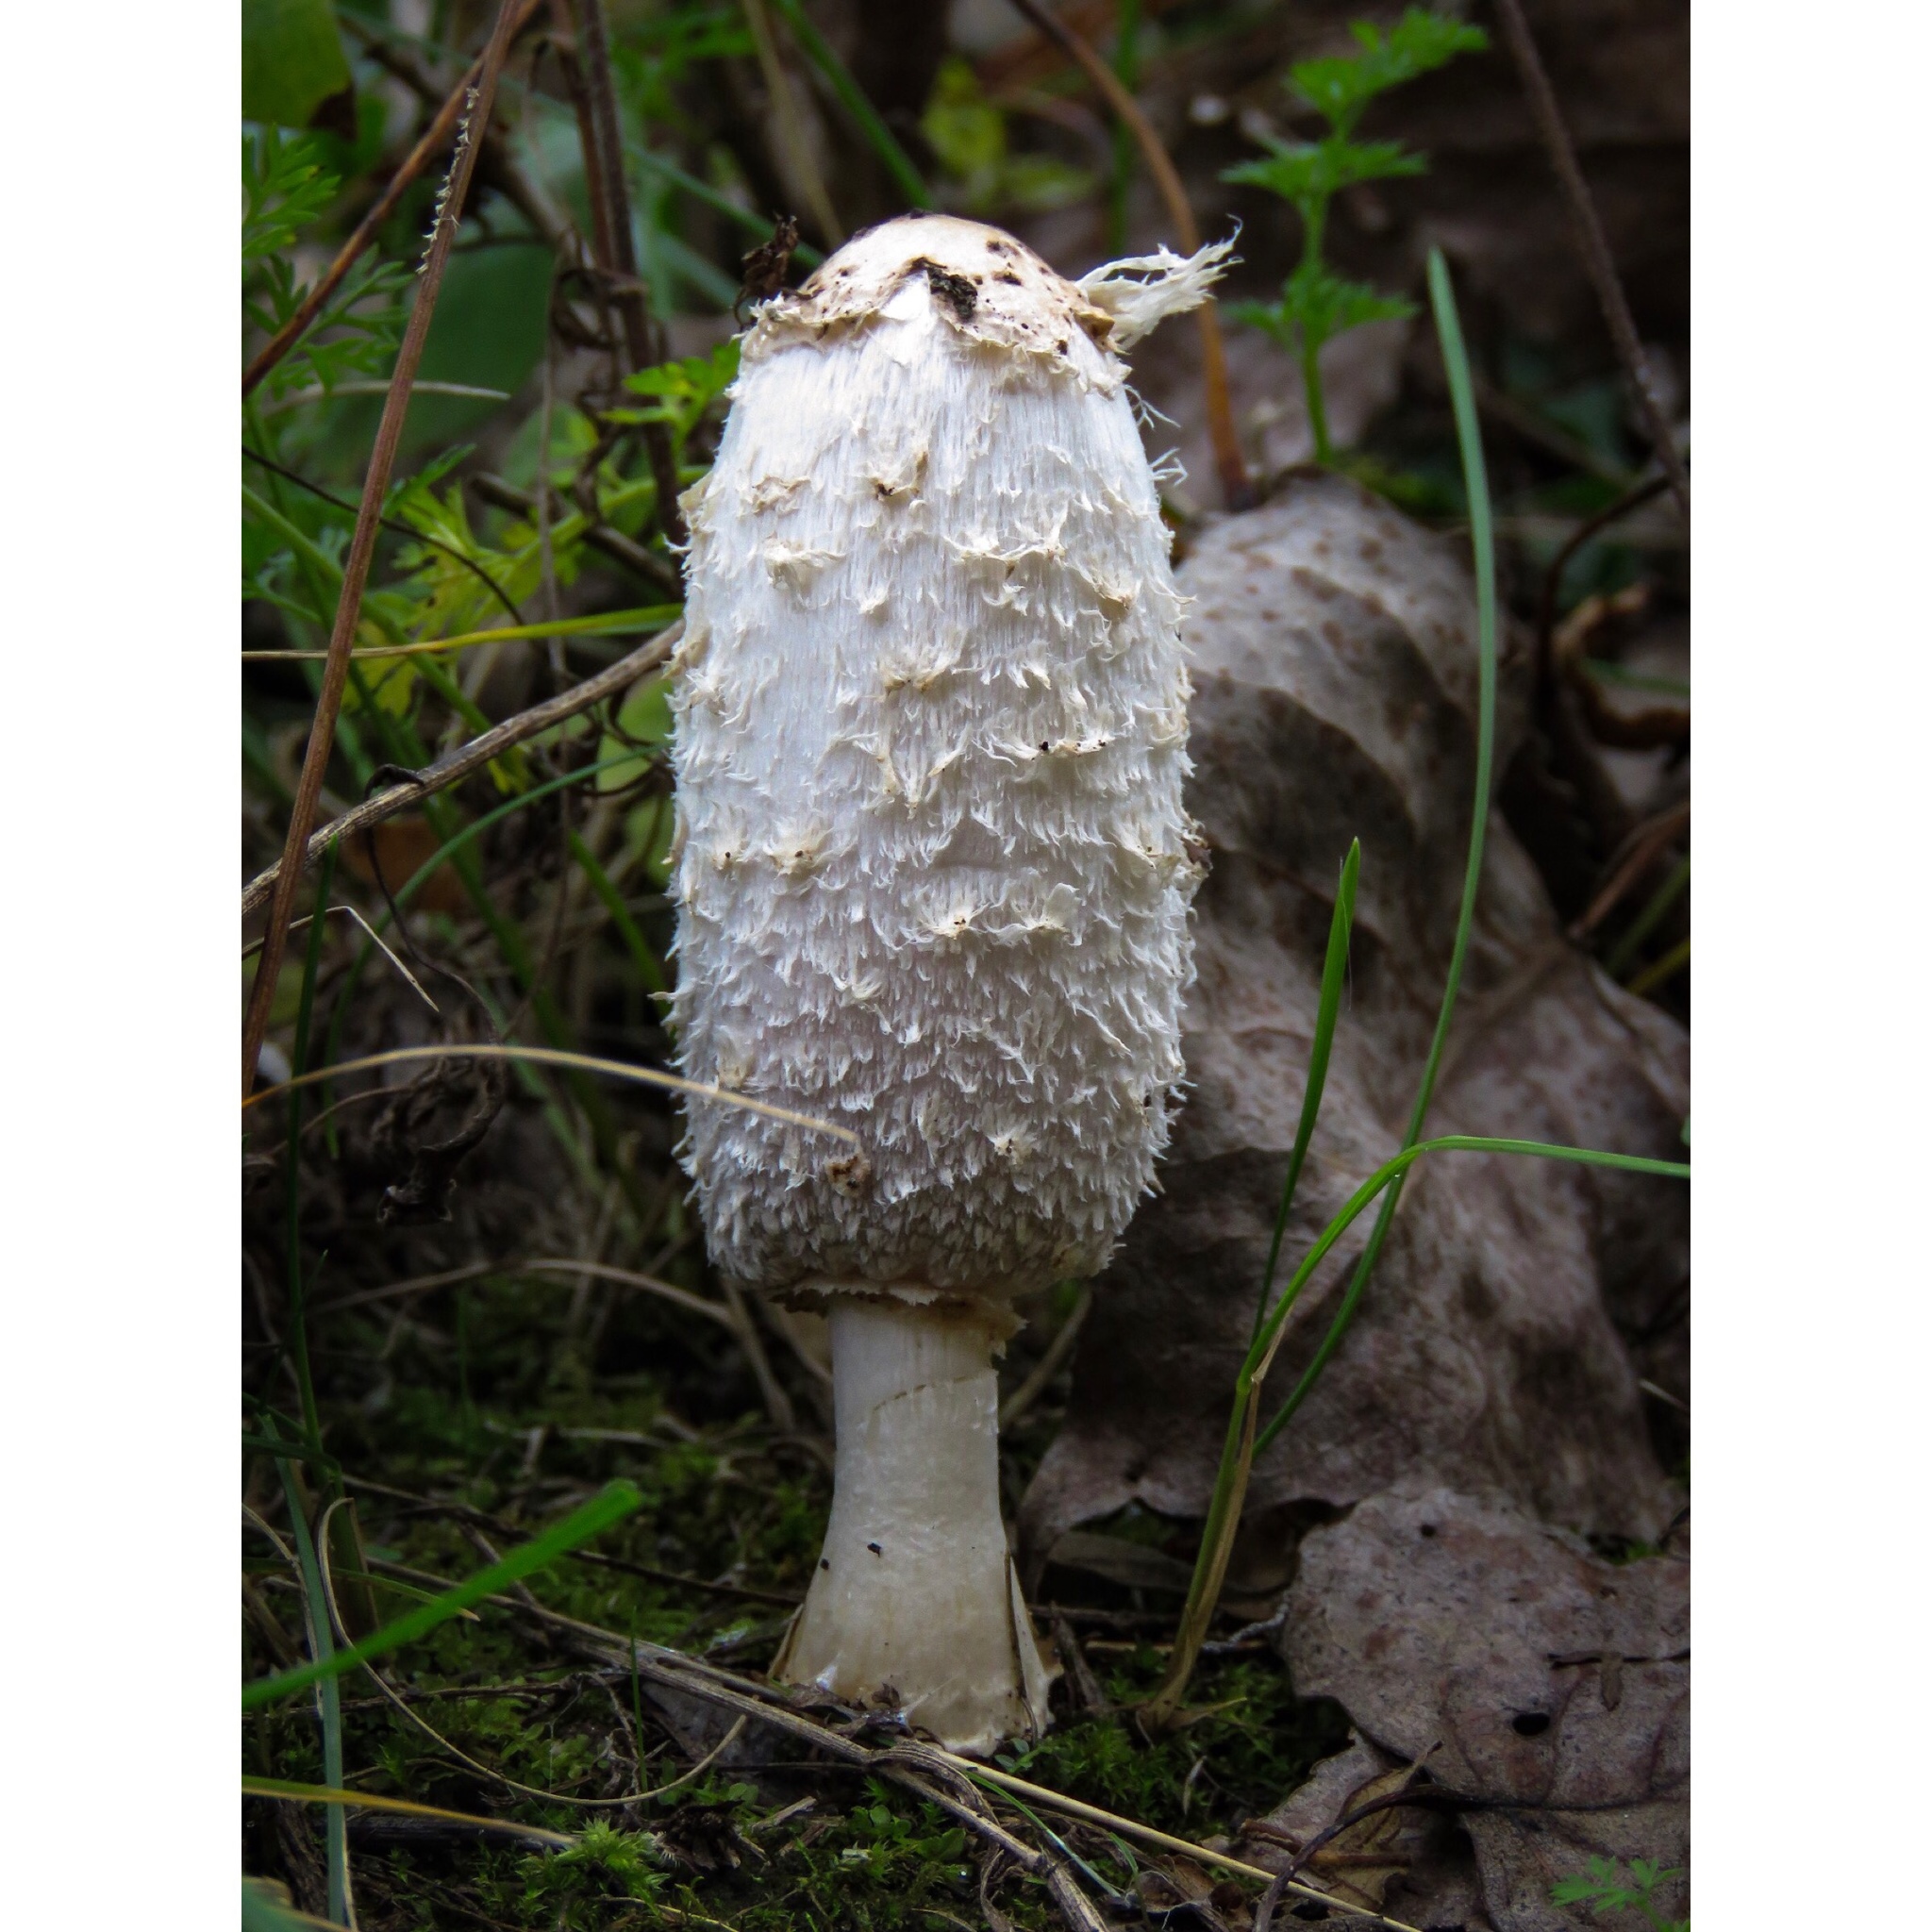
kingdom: Fungi
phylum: Basidiomycota
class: Agaricomycetes
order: Agaricales
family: Agaricaceae
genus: Coprinus
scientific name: Coprinus comatus
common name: Lawyer's wig
